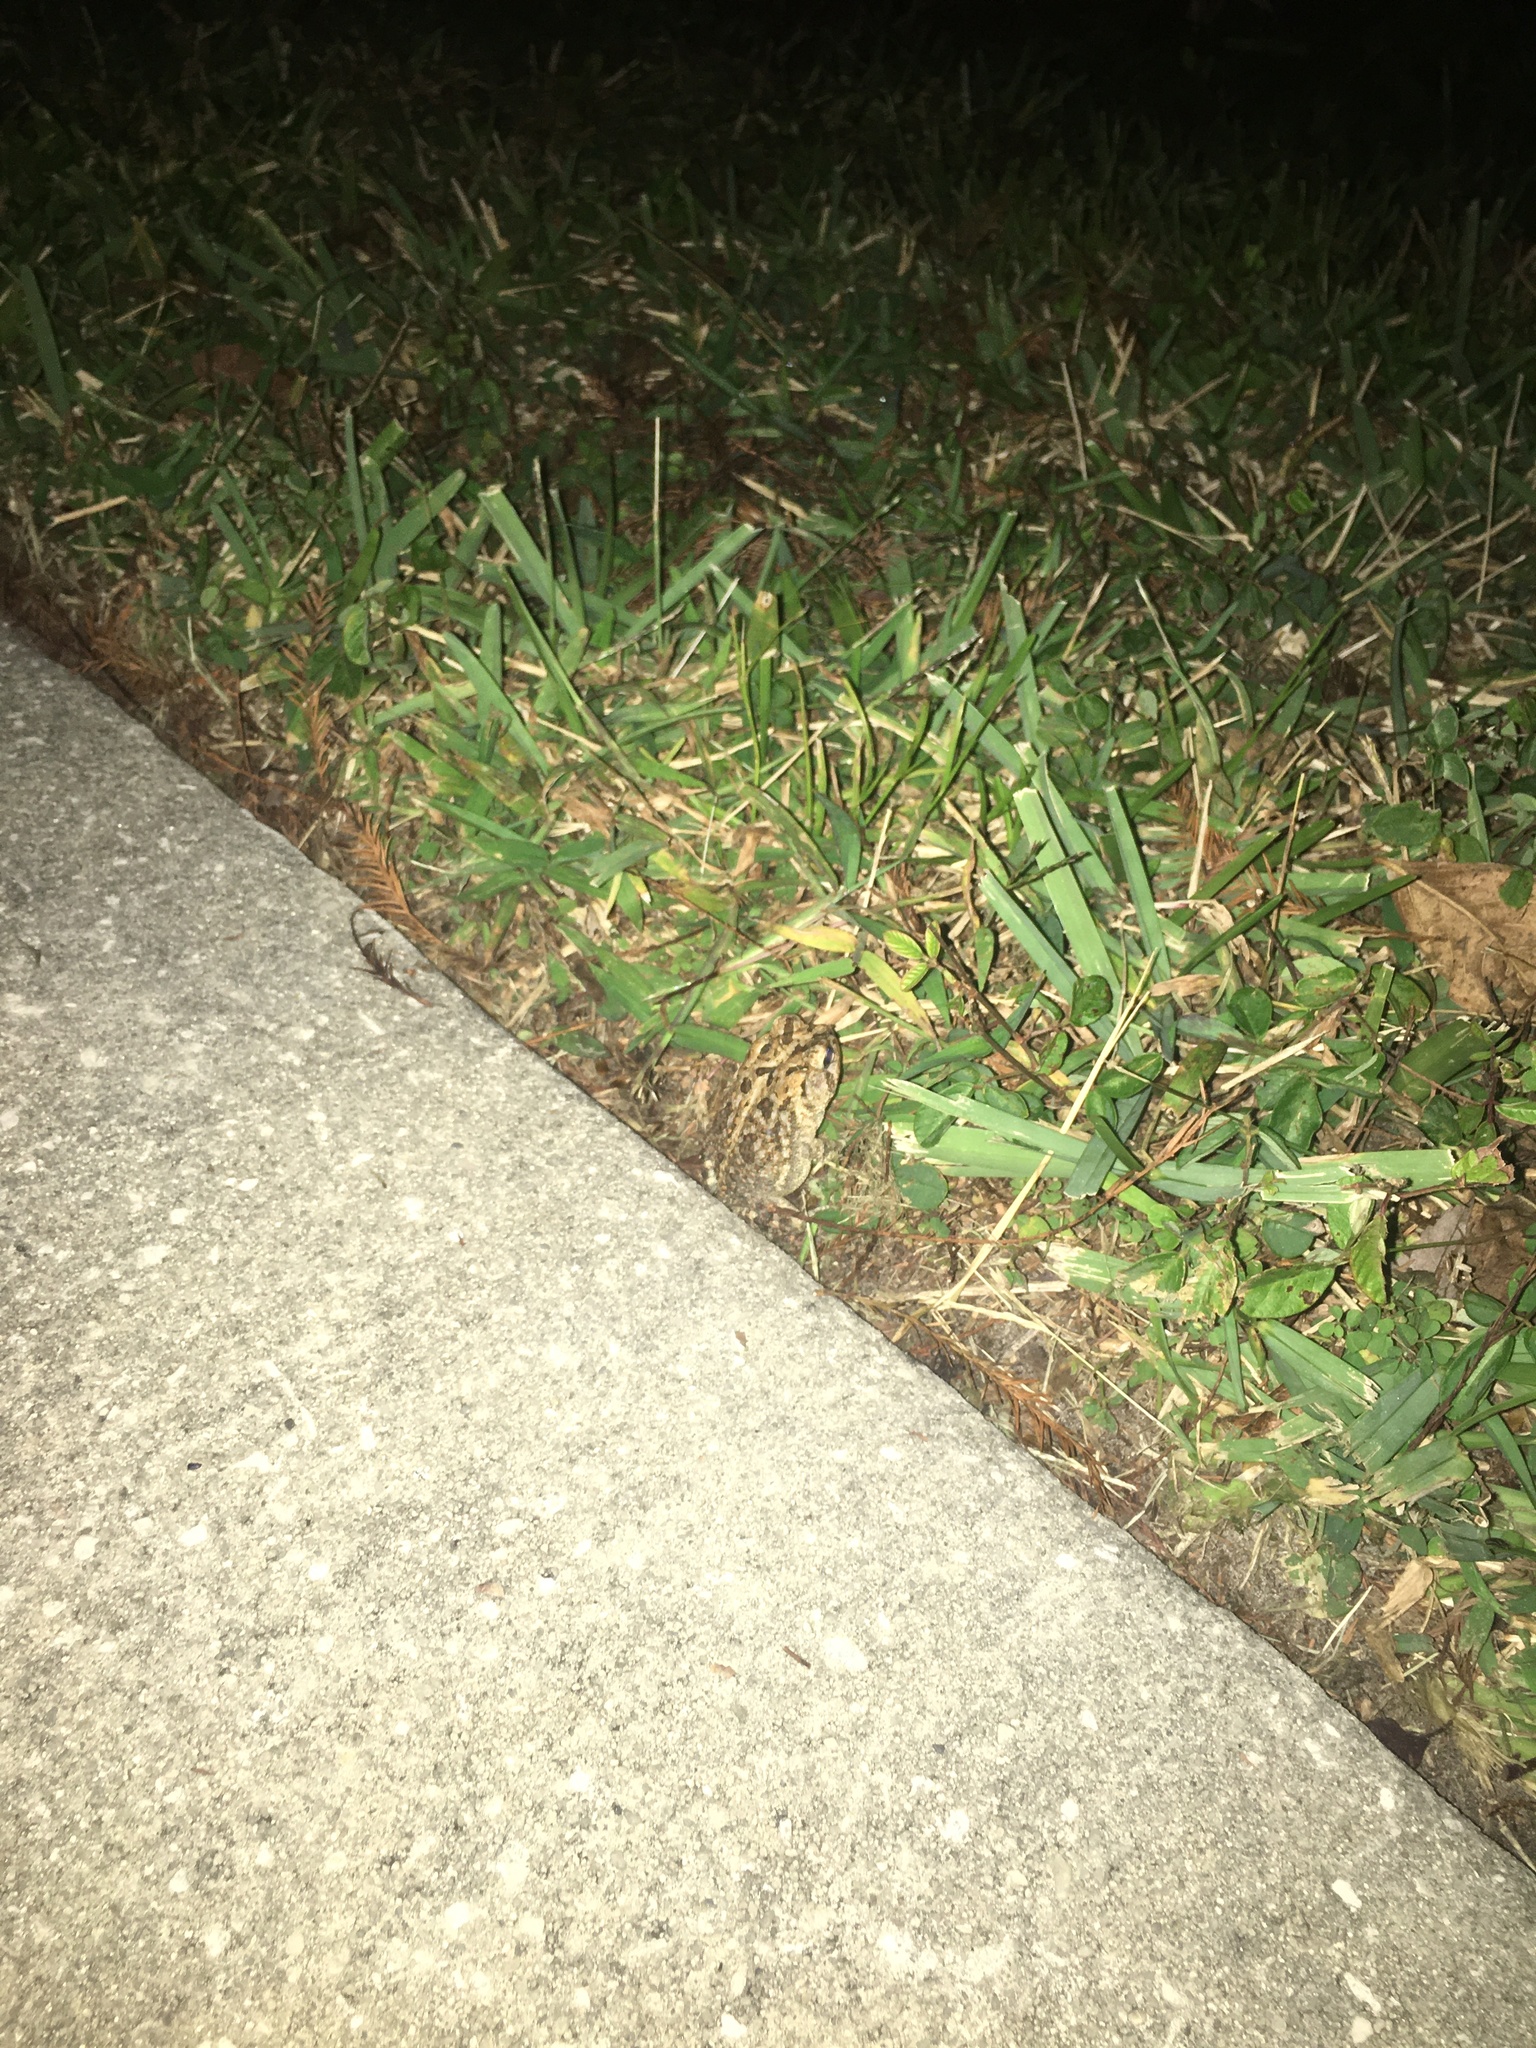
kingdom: Animalia
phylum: Chordata
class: Amphibia
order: Anura
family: Bufonidae
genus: Anaxyrus
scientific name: Anaxyrus terrestris
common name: Southern toad
